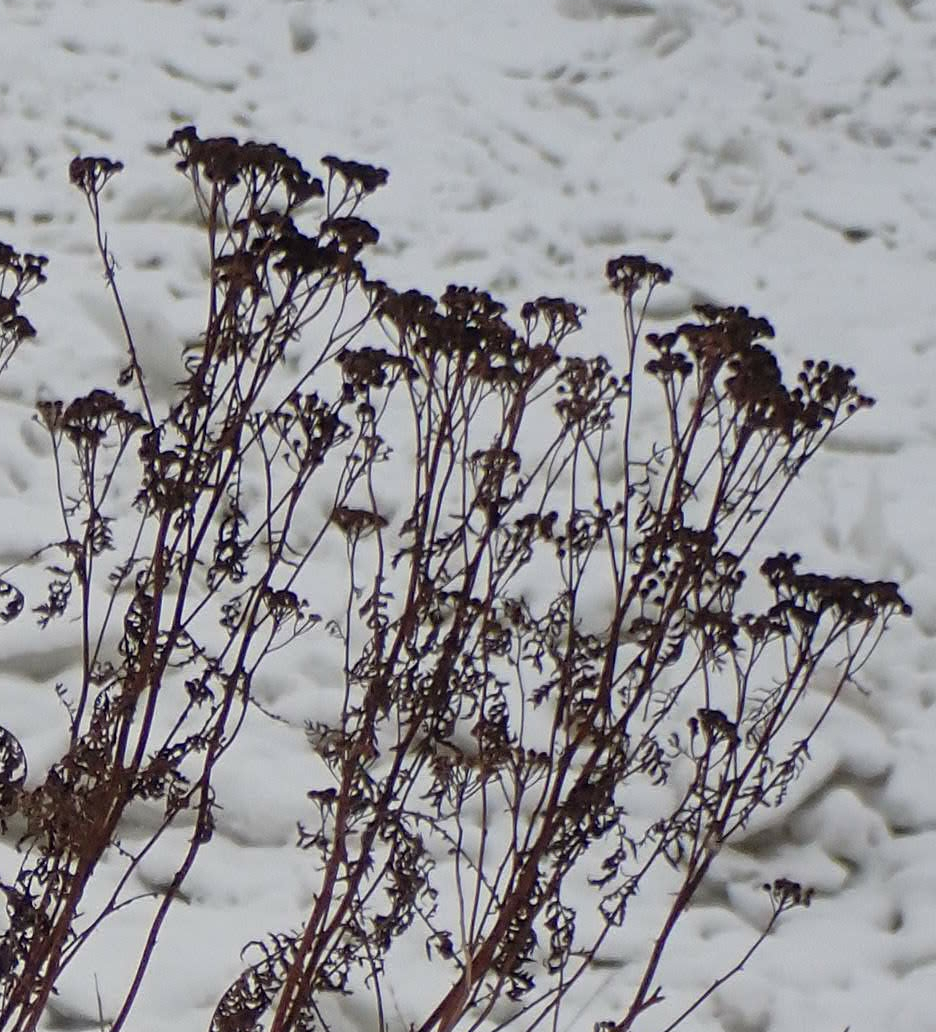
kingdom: Plantae
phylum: Tracheophyta
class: Magnoliopsida
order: Asterales
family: Asteraceae
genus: Tanacetum
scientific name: Tanacetum vulgare
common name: Common tansy
